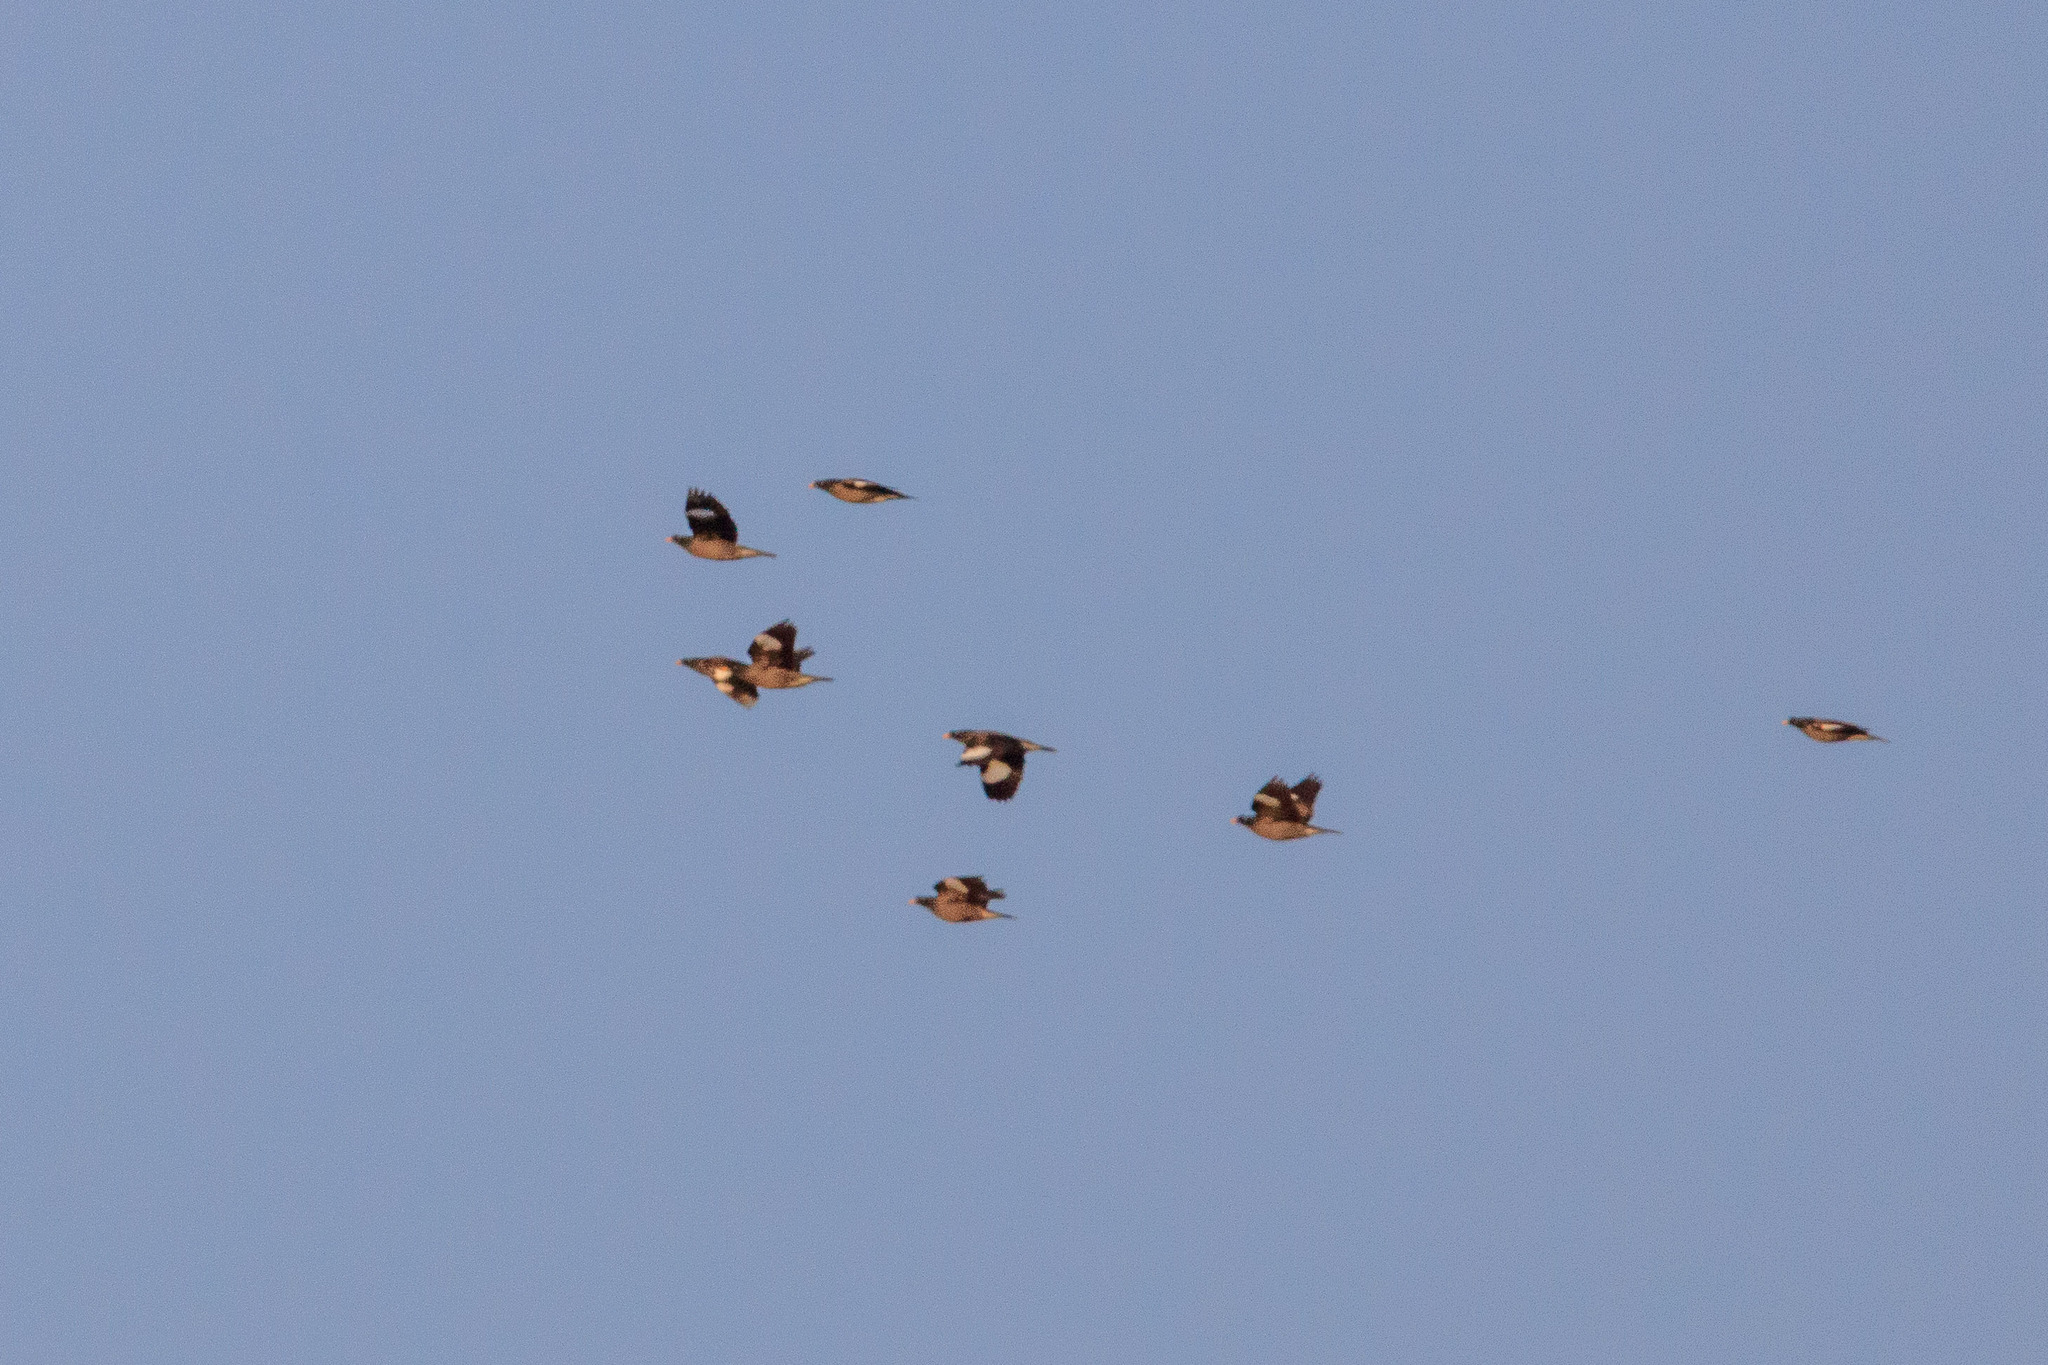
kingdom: Animalia
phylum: Chordata
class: Aves
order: Passeriformes
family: Sturnidae
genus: Acridotheres
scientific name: Acridotheres fuscus
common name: Jungle myna
